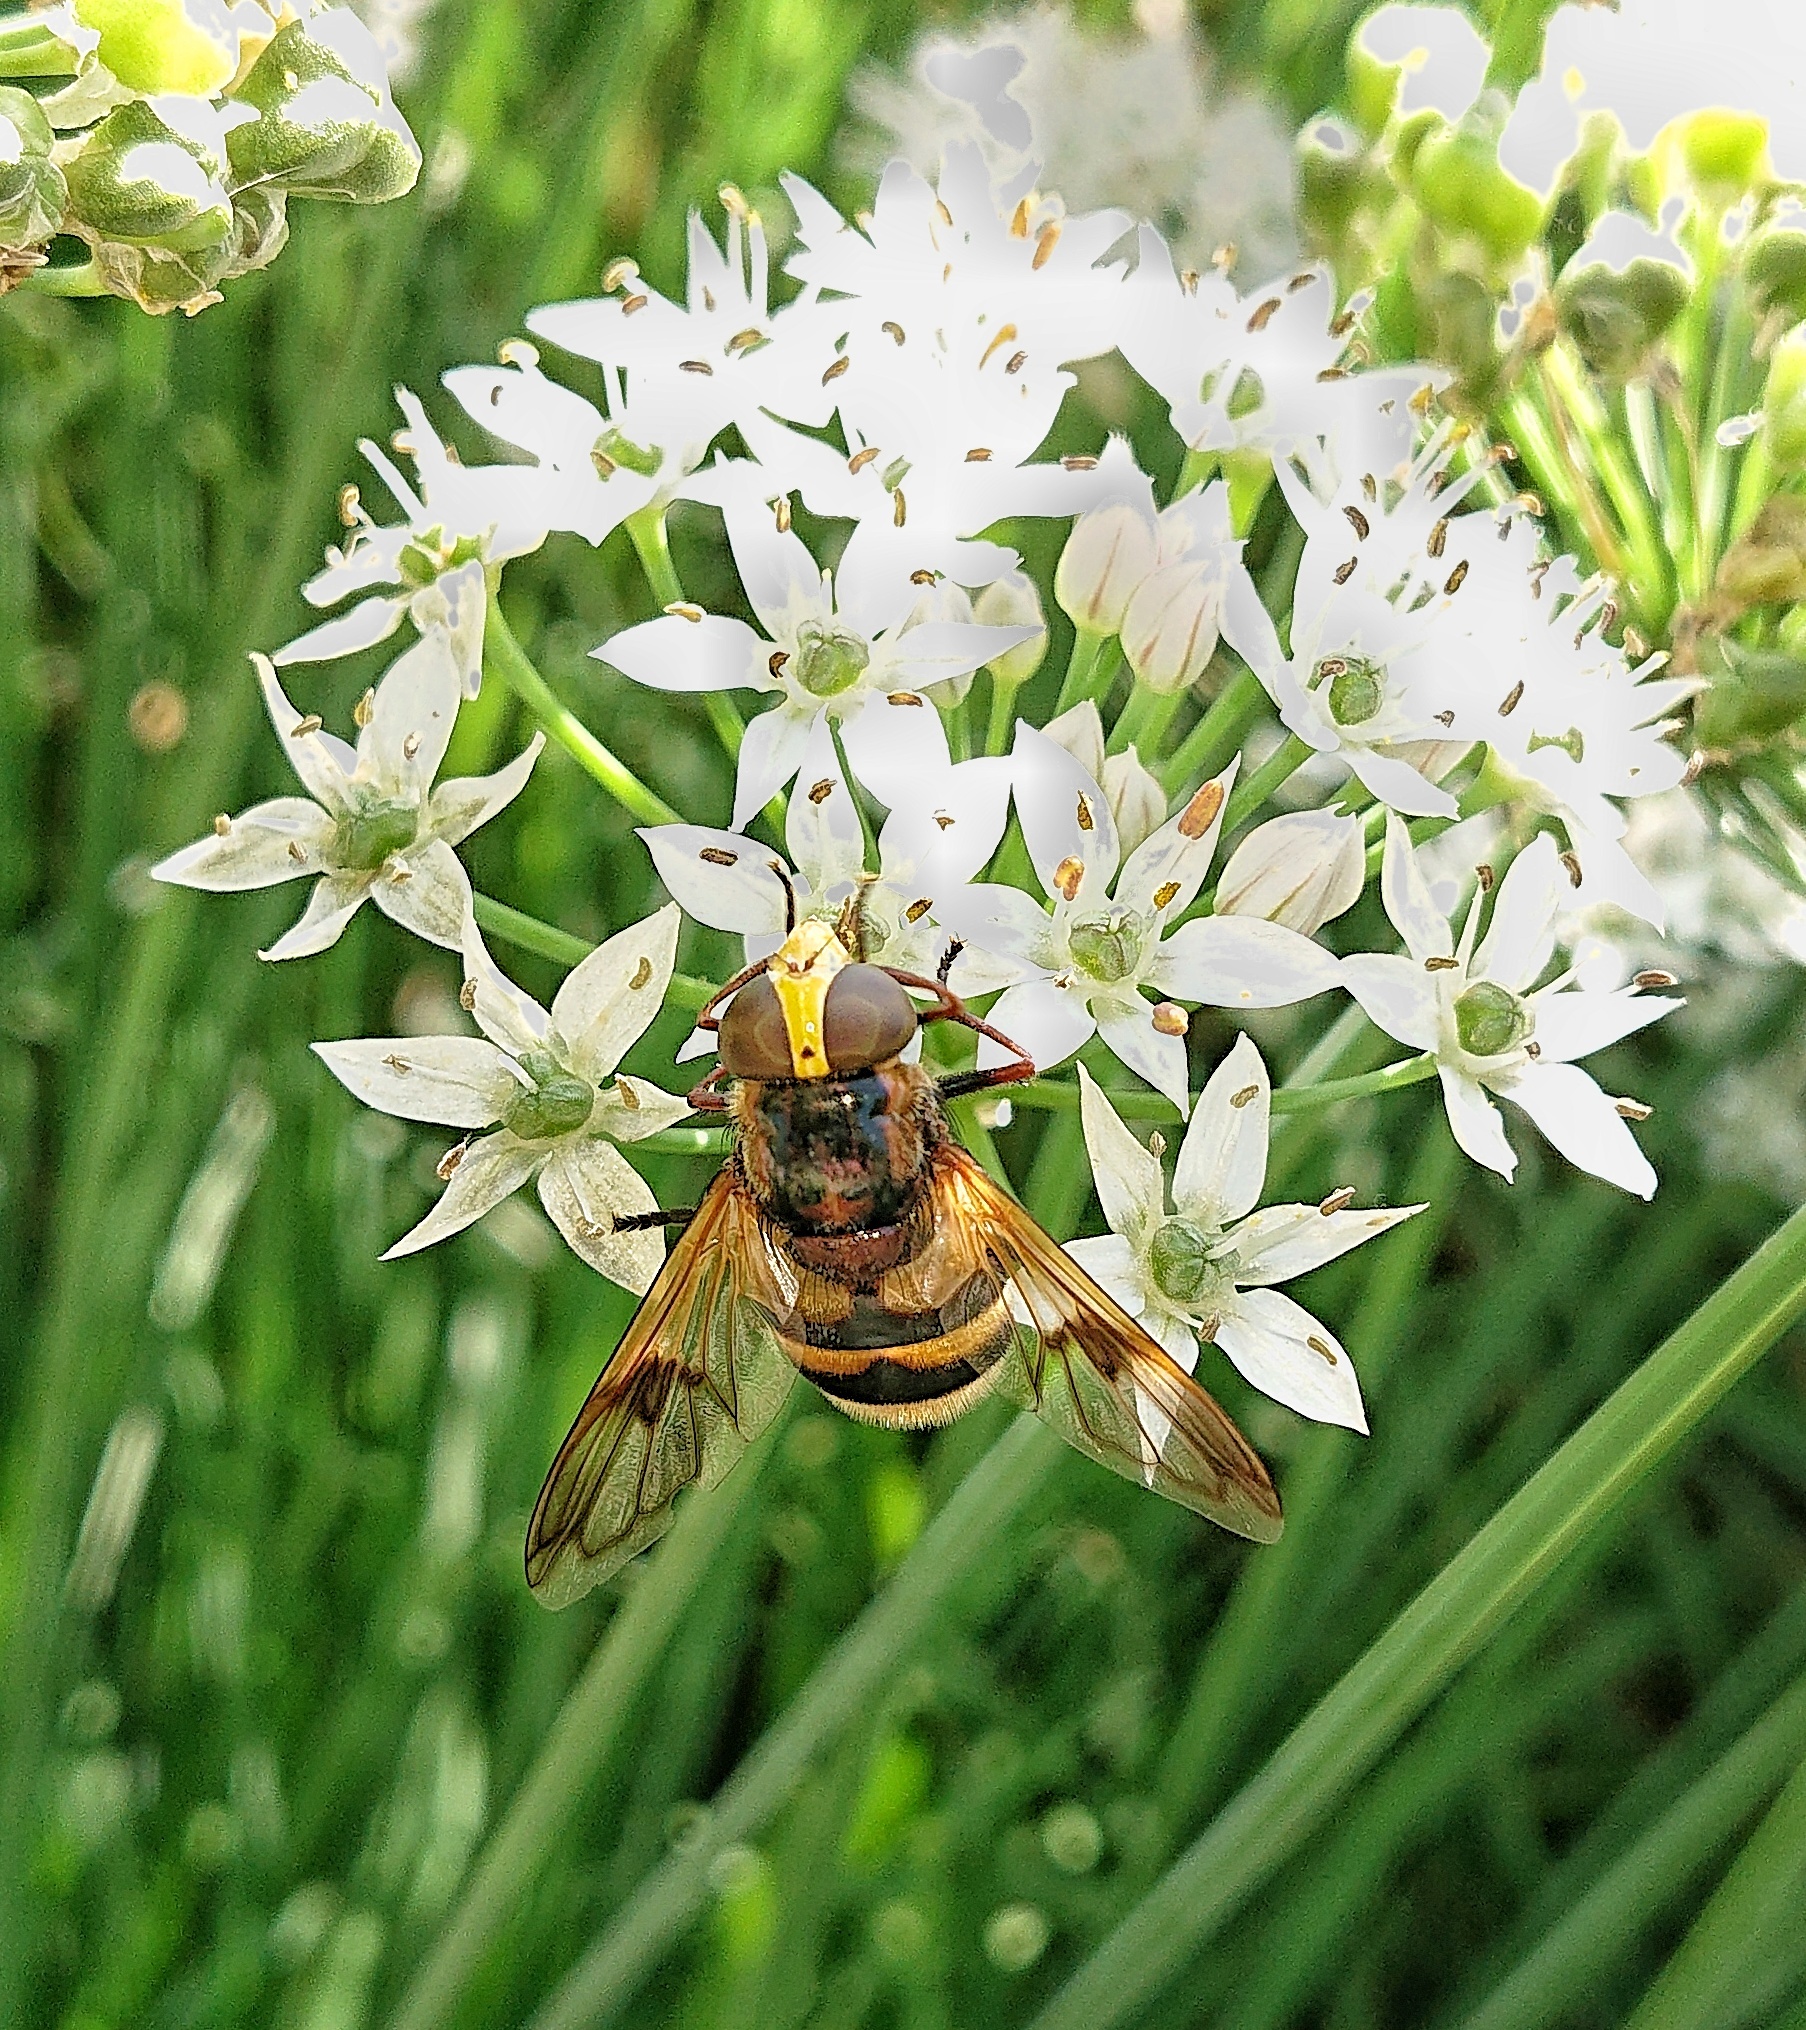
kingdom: Animalia
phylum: Arthropoda
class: Insecta
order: Diptera
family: Syrphidae
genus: Volucella
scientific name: Volucella elegans
